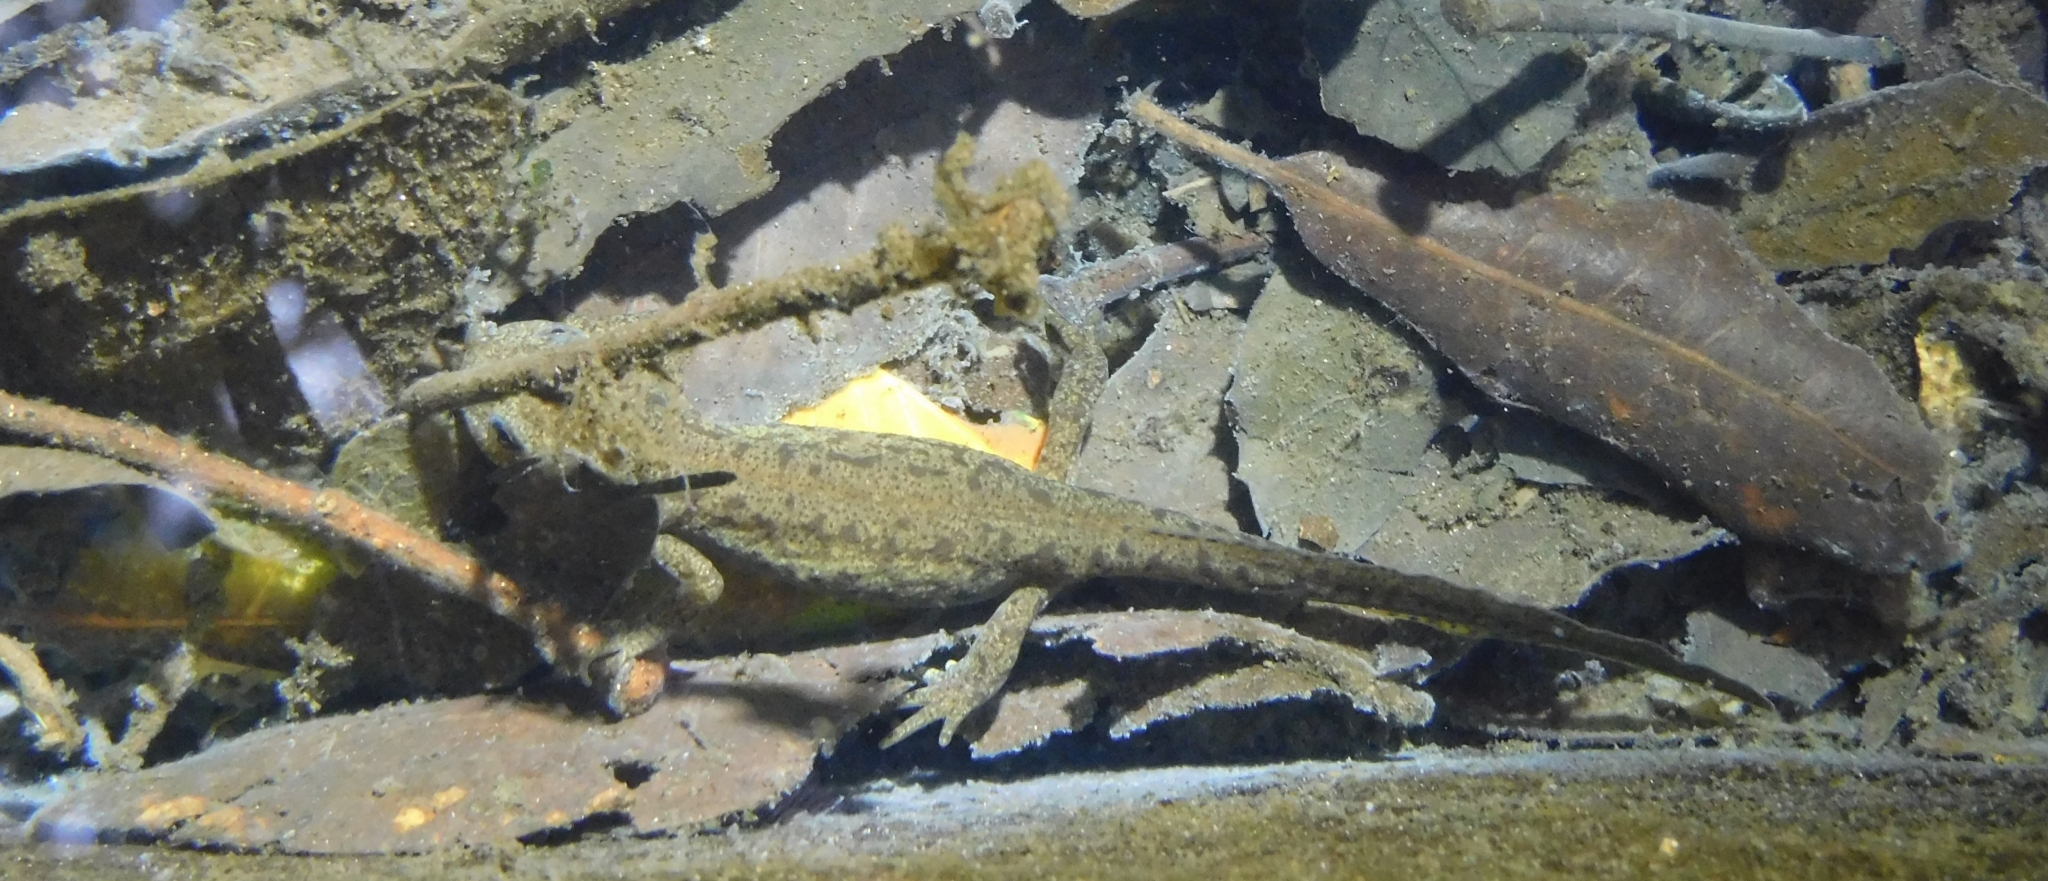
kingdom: Animalia
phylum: Chordata
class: Amphibia
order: Caudata
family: Salamandridae
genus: Ichthyosaura
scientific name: Ichthyosaura alpestris
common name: Alpine newt
